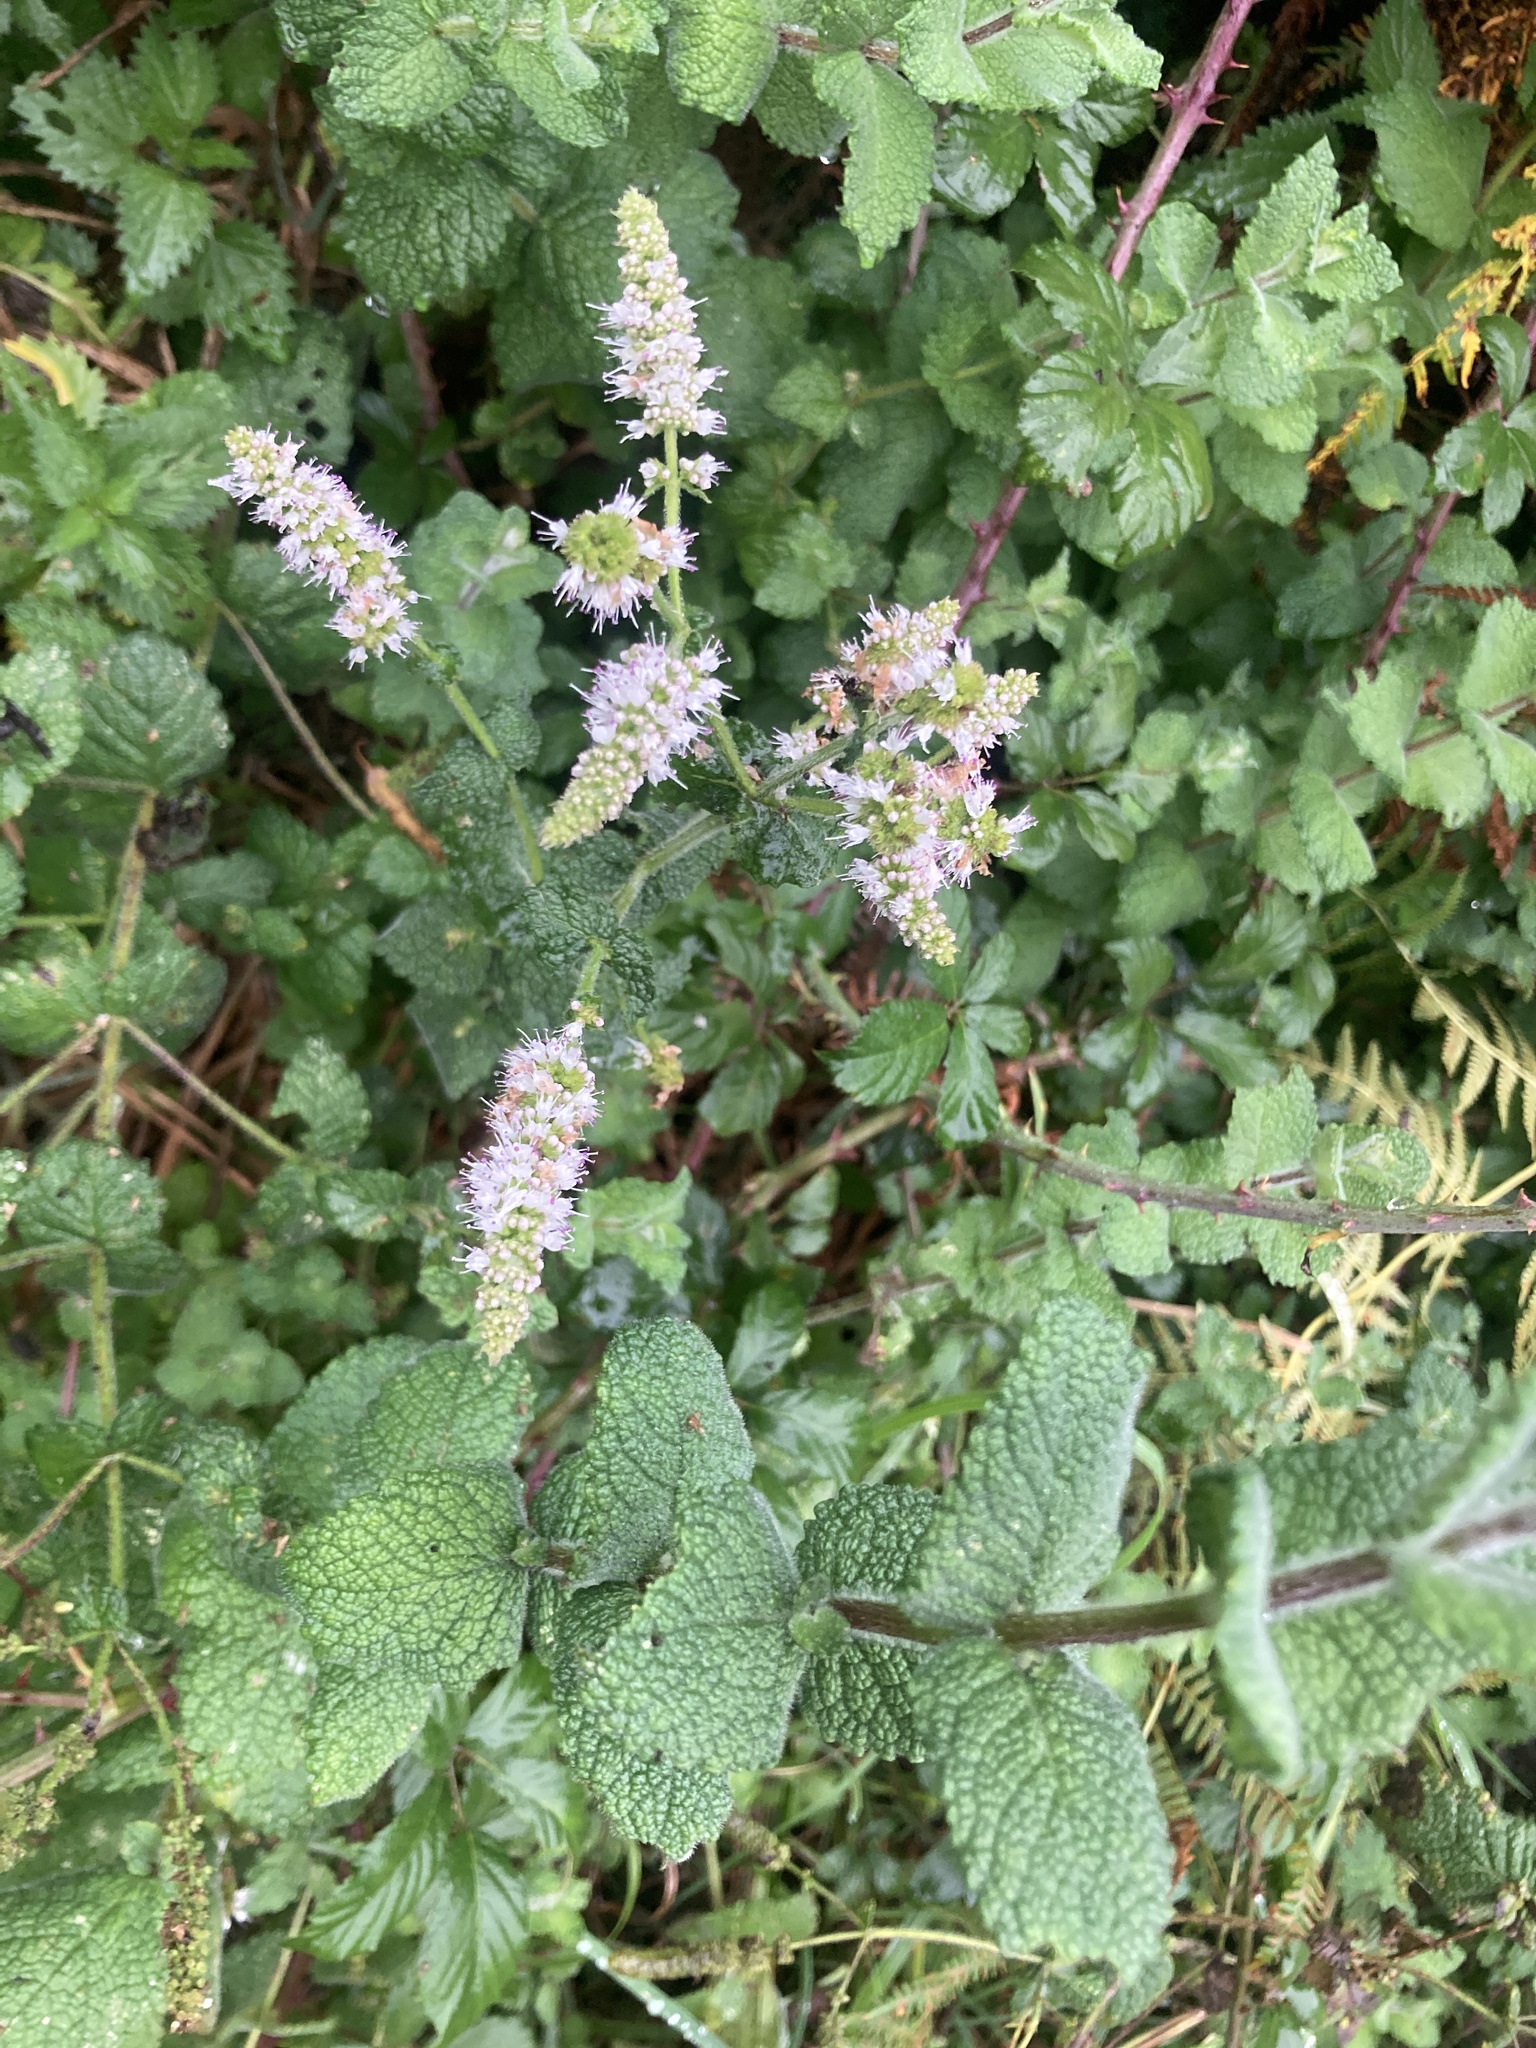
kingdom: Plantae
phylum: Tracheophyta
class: Magnoliopsida
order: Lamiales
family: Lamiaceae
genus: Mentha
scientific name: Mentha suaveolens
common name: Apple mint
